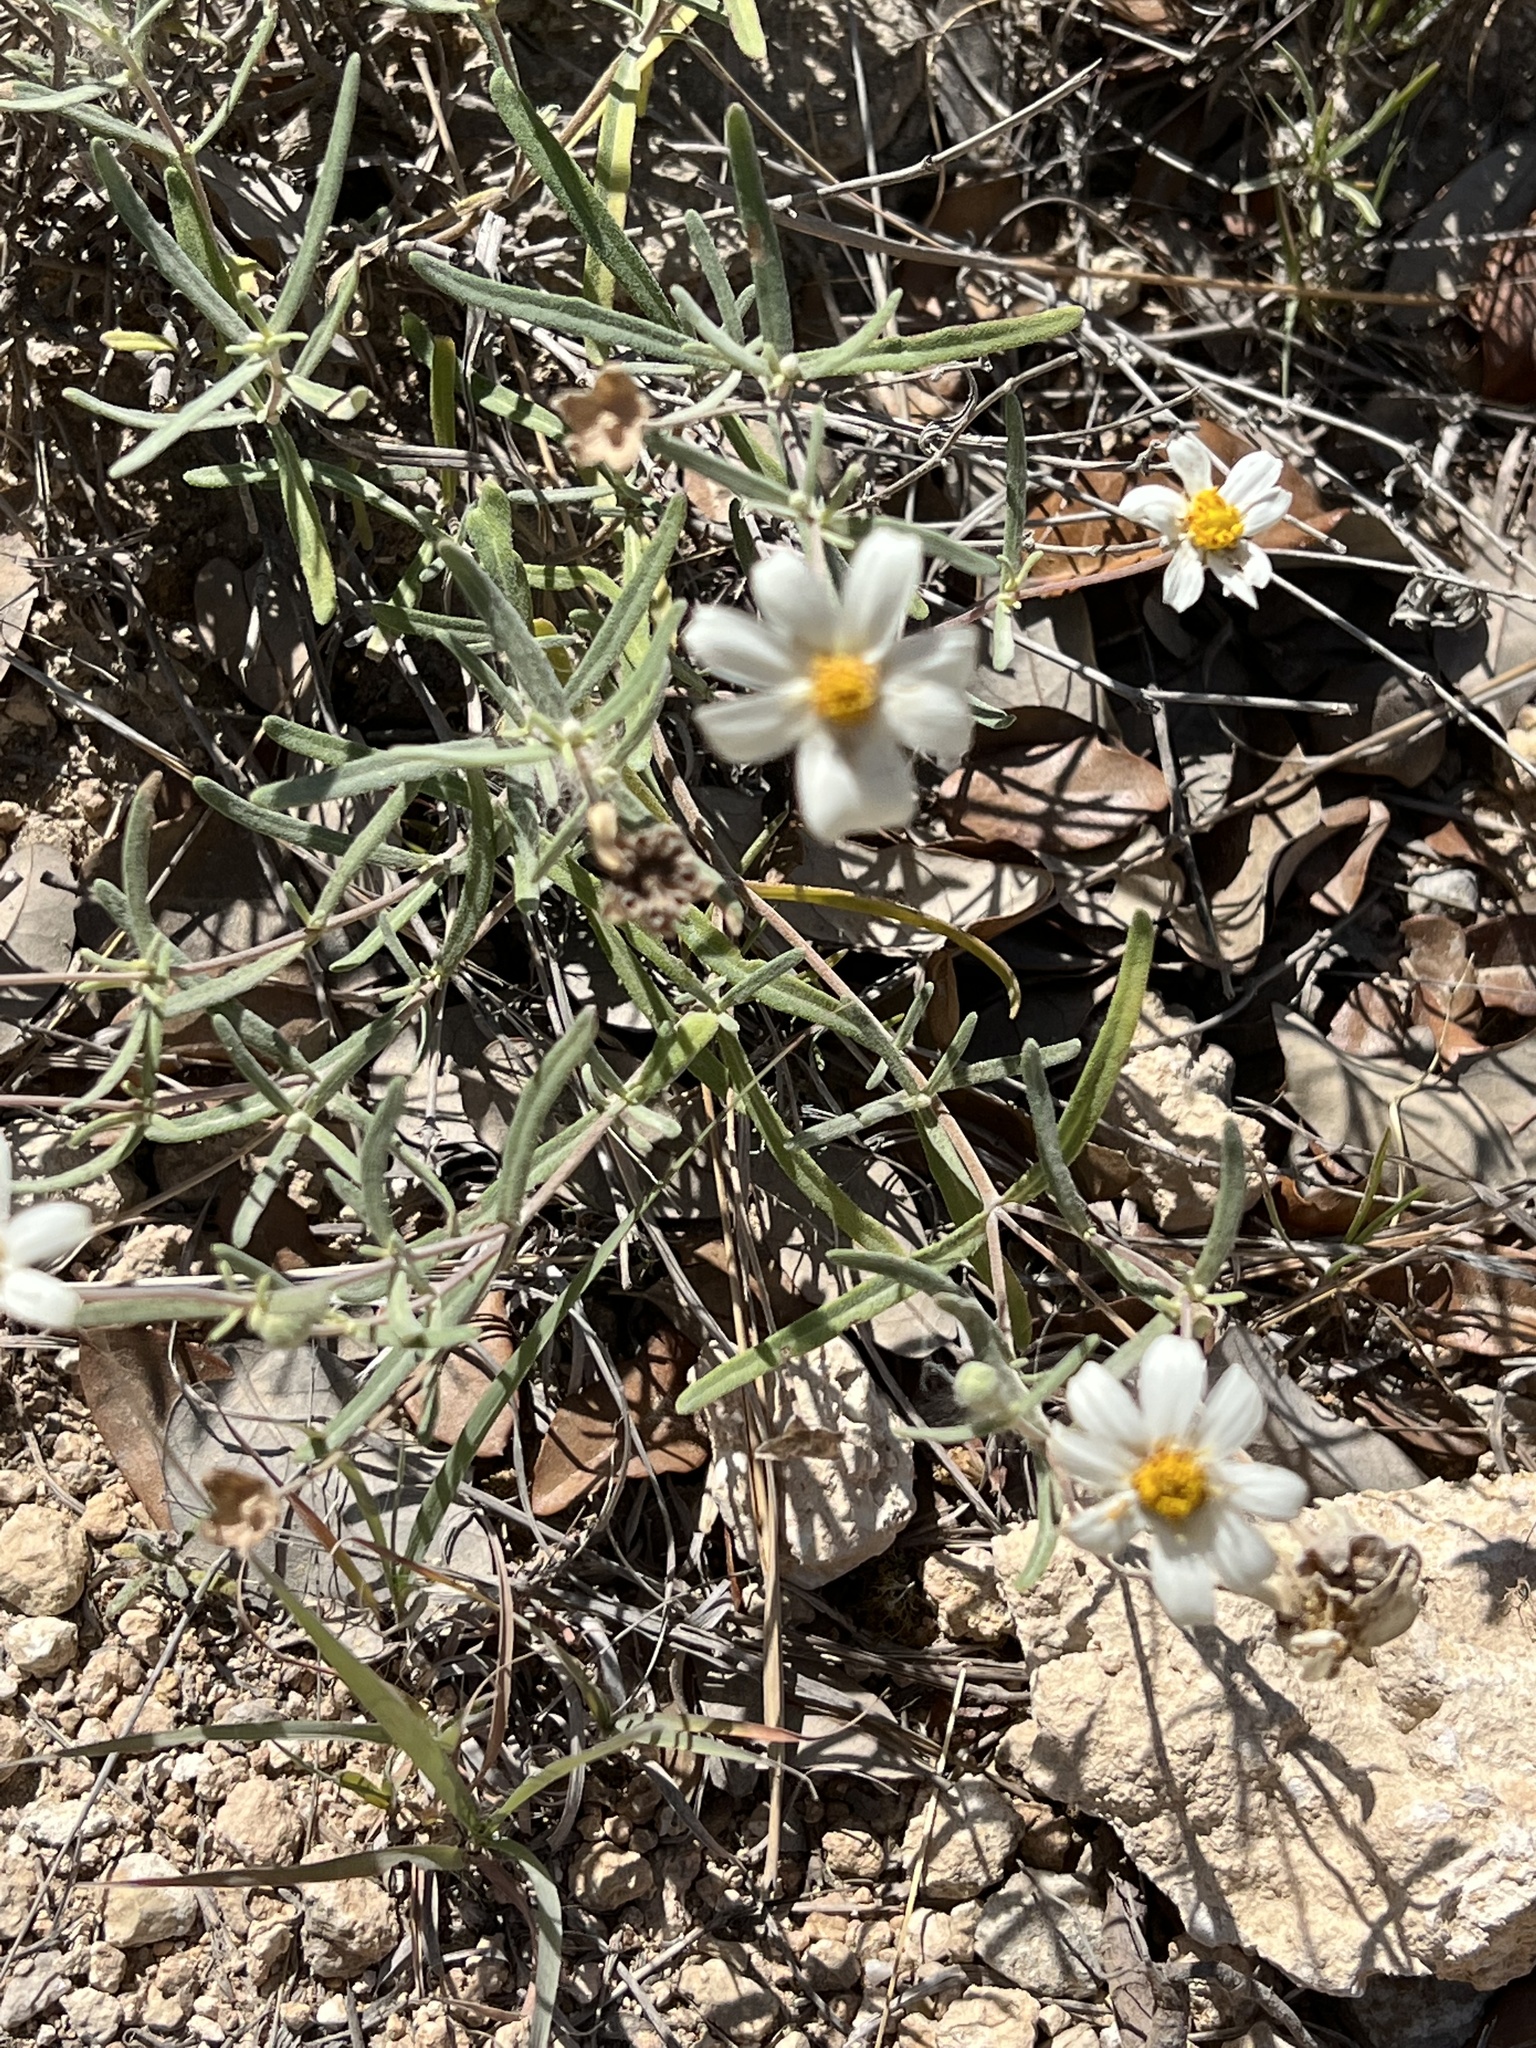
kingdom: Plantae
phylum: Tracheophyta
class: Magnoliopsida
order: Asterales
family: Asteraceae
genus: Melampodium
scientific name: Melampodium leucanthum
